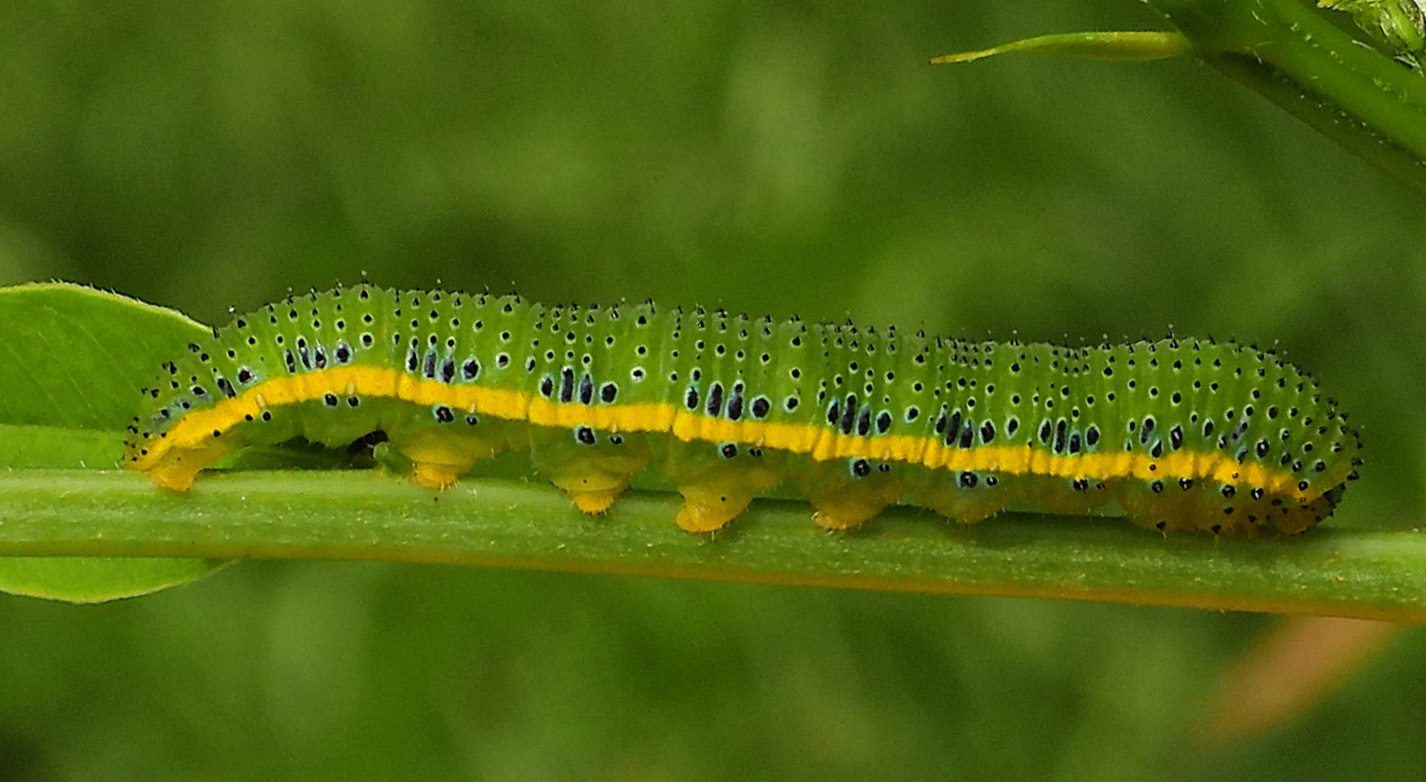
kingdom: Animalia
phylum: Arthropoda
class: Insecta
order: Lepidoptera
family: Pieridae
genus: Phoebis
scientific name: Phoebis sennae
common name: Cloudless sulphur
